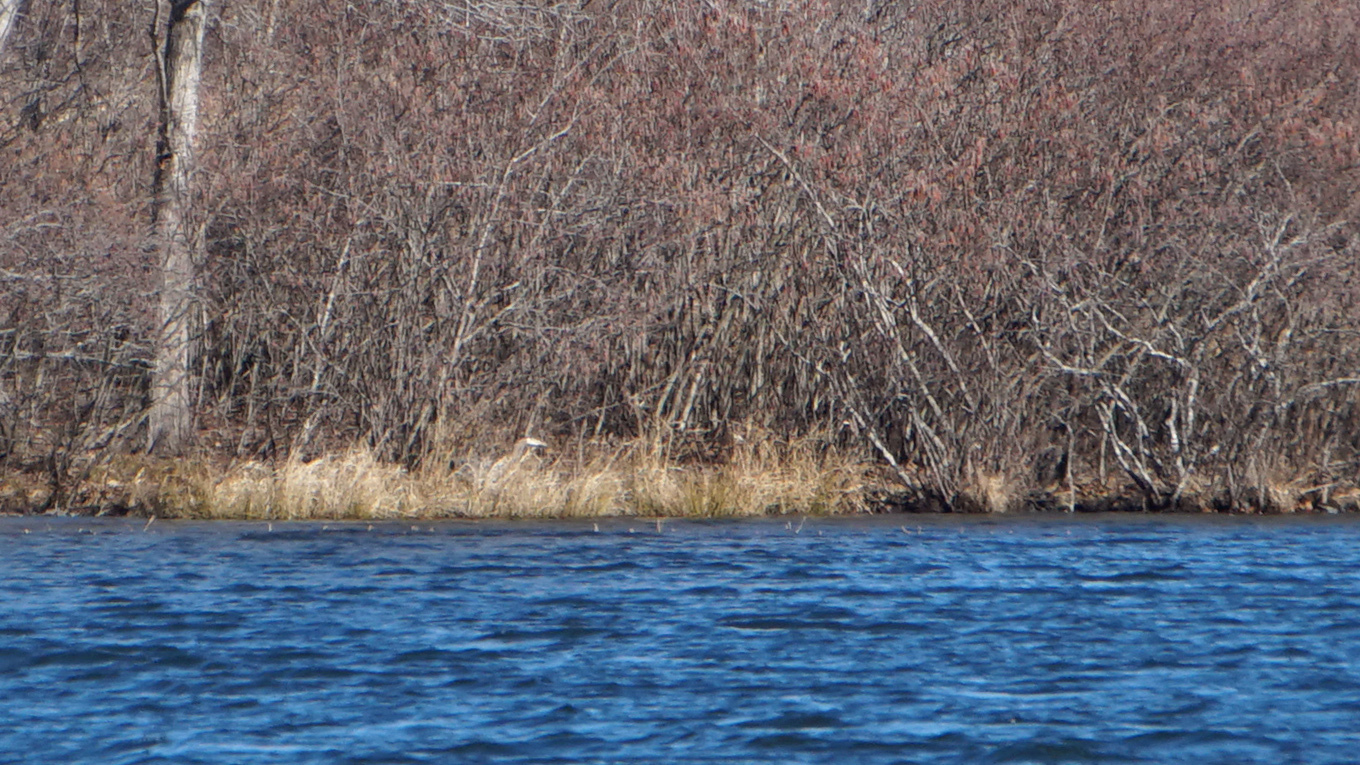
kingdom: Animalia
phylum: Chordata
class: Aves
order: Pelecaniformes
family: Ardeidae
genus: Ardea
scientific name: Ardea herodias
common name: Great blue heron
